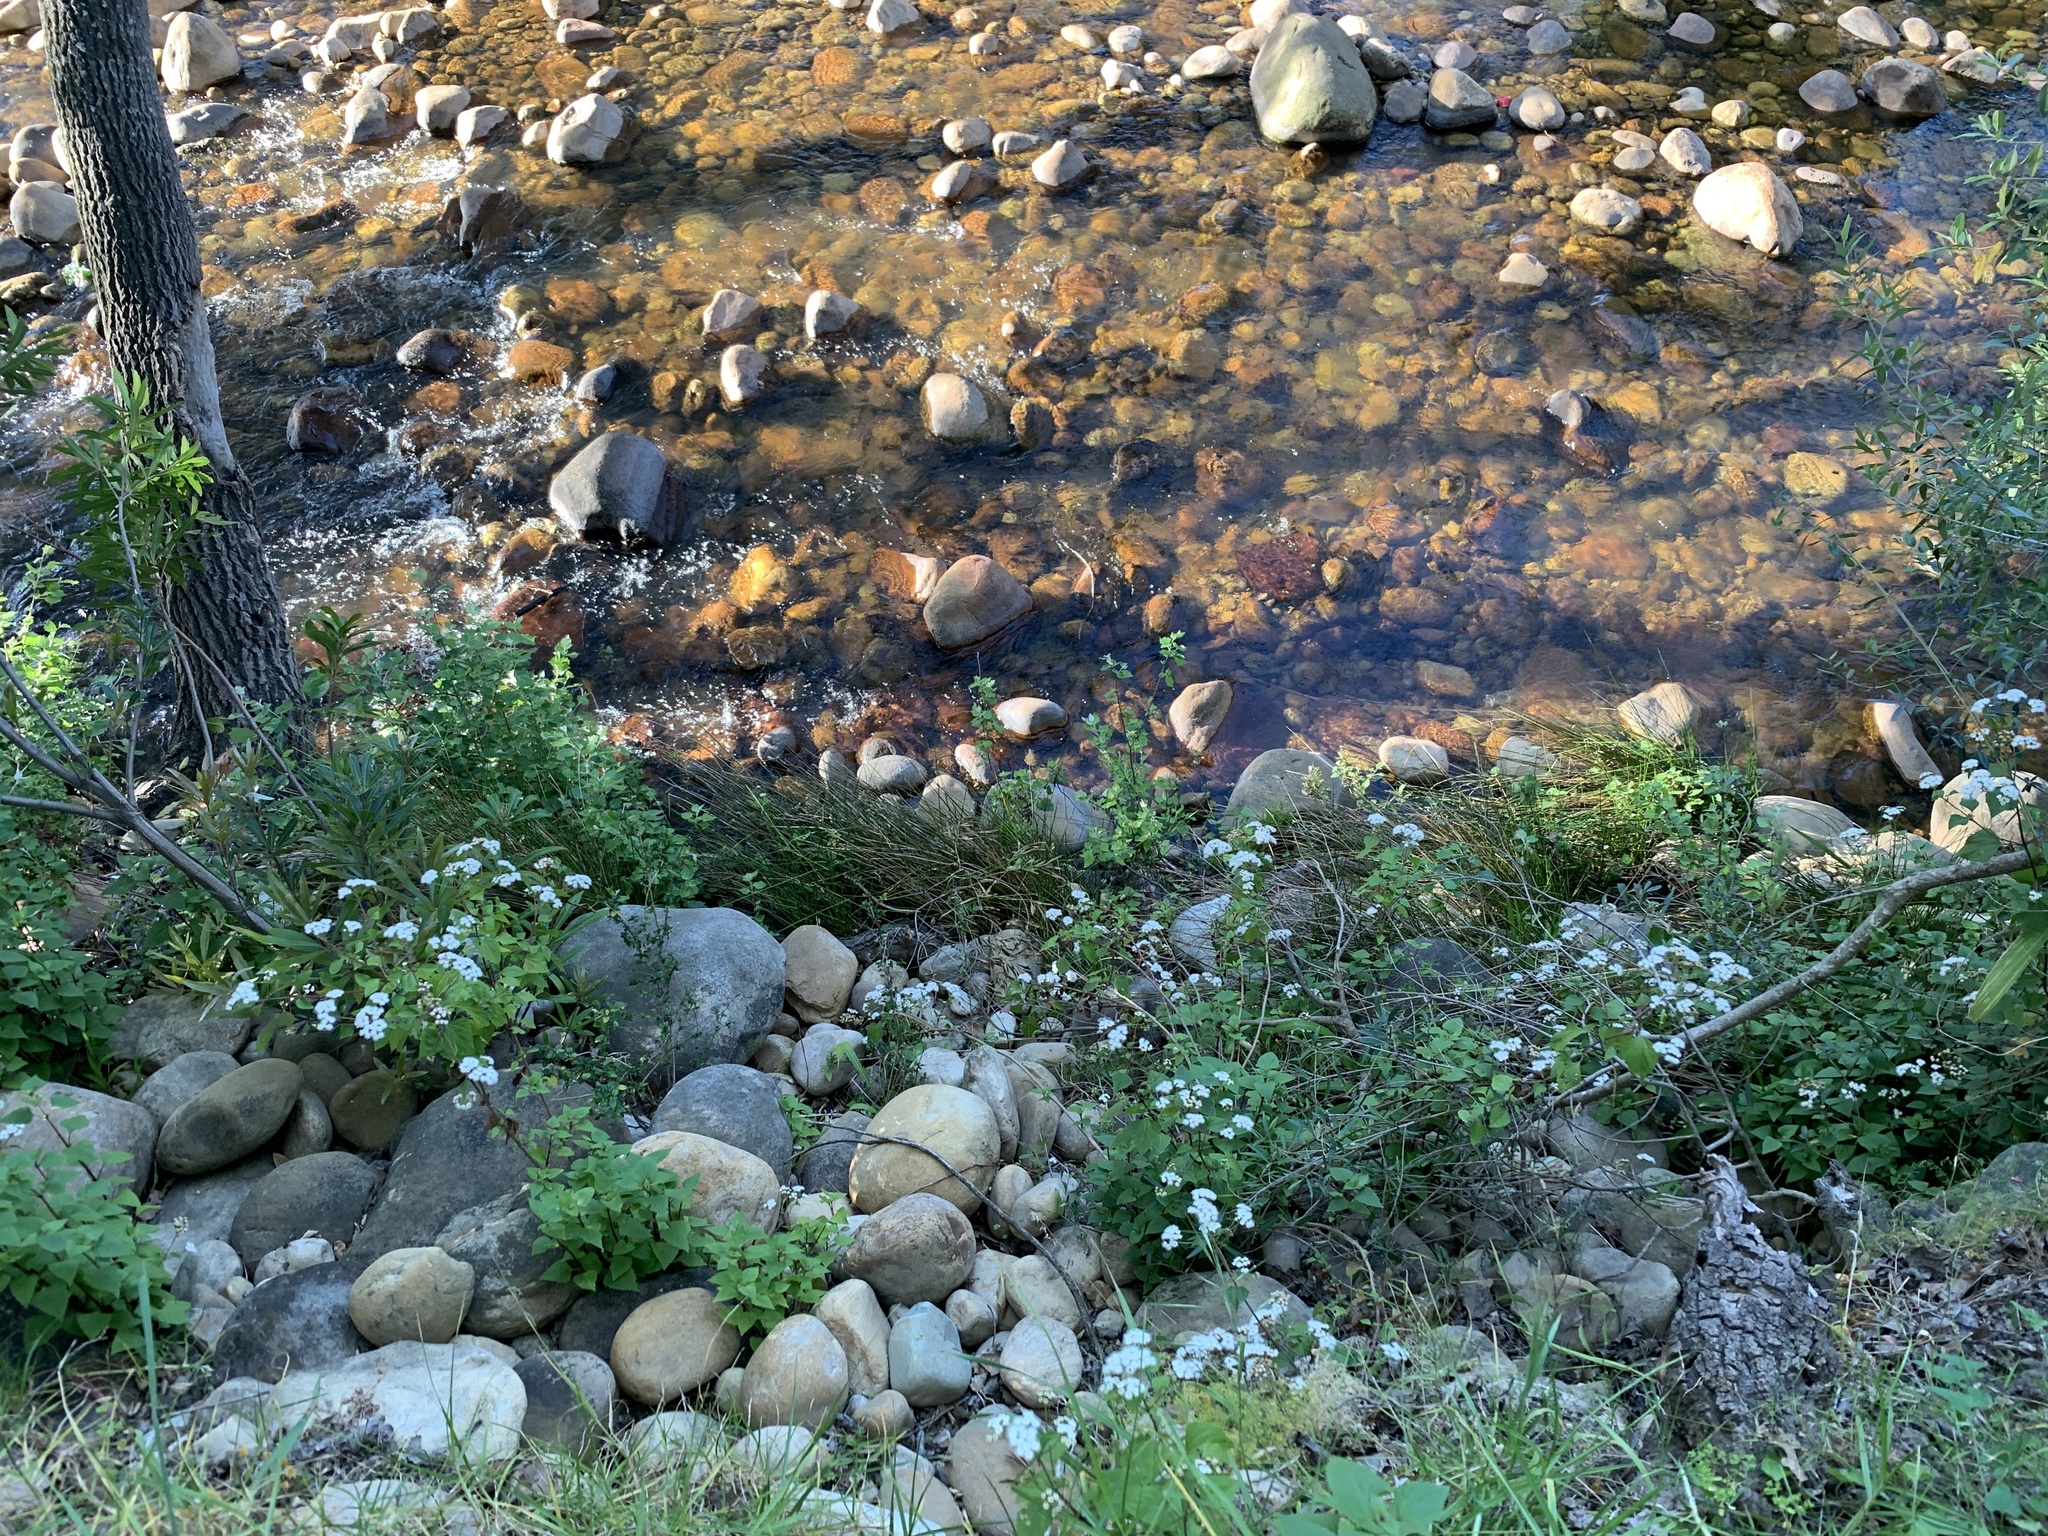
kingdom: Plantae
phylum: Tracheophyta
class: Magnoliopsida
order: Asterales
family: Asteraceae
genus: Ageratina
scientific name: Ageratina adenophora
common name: Sticky snakeroot
